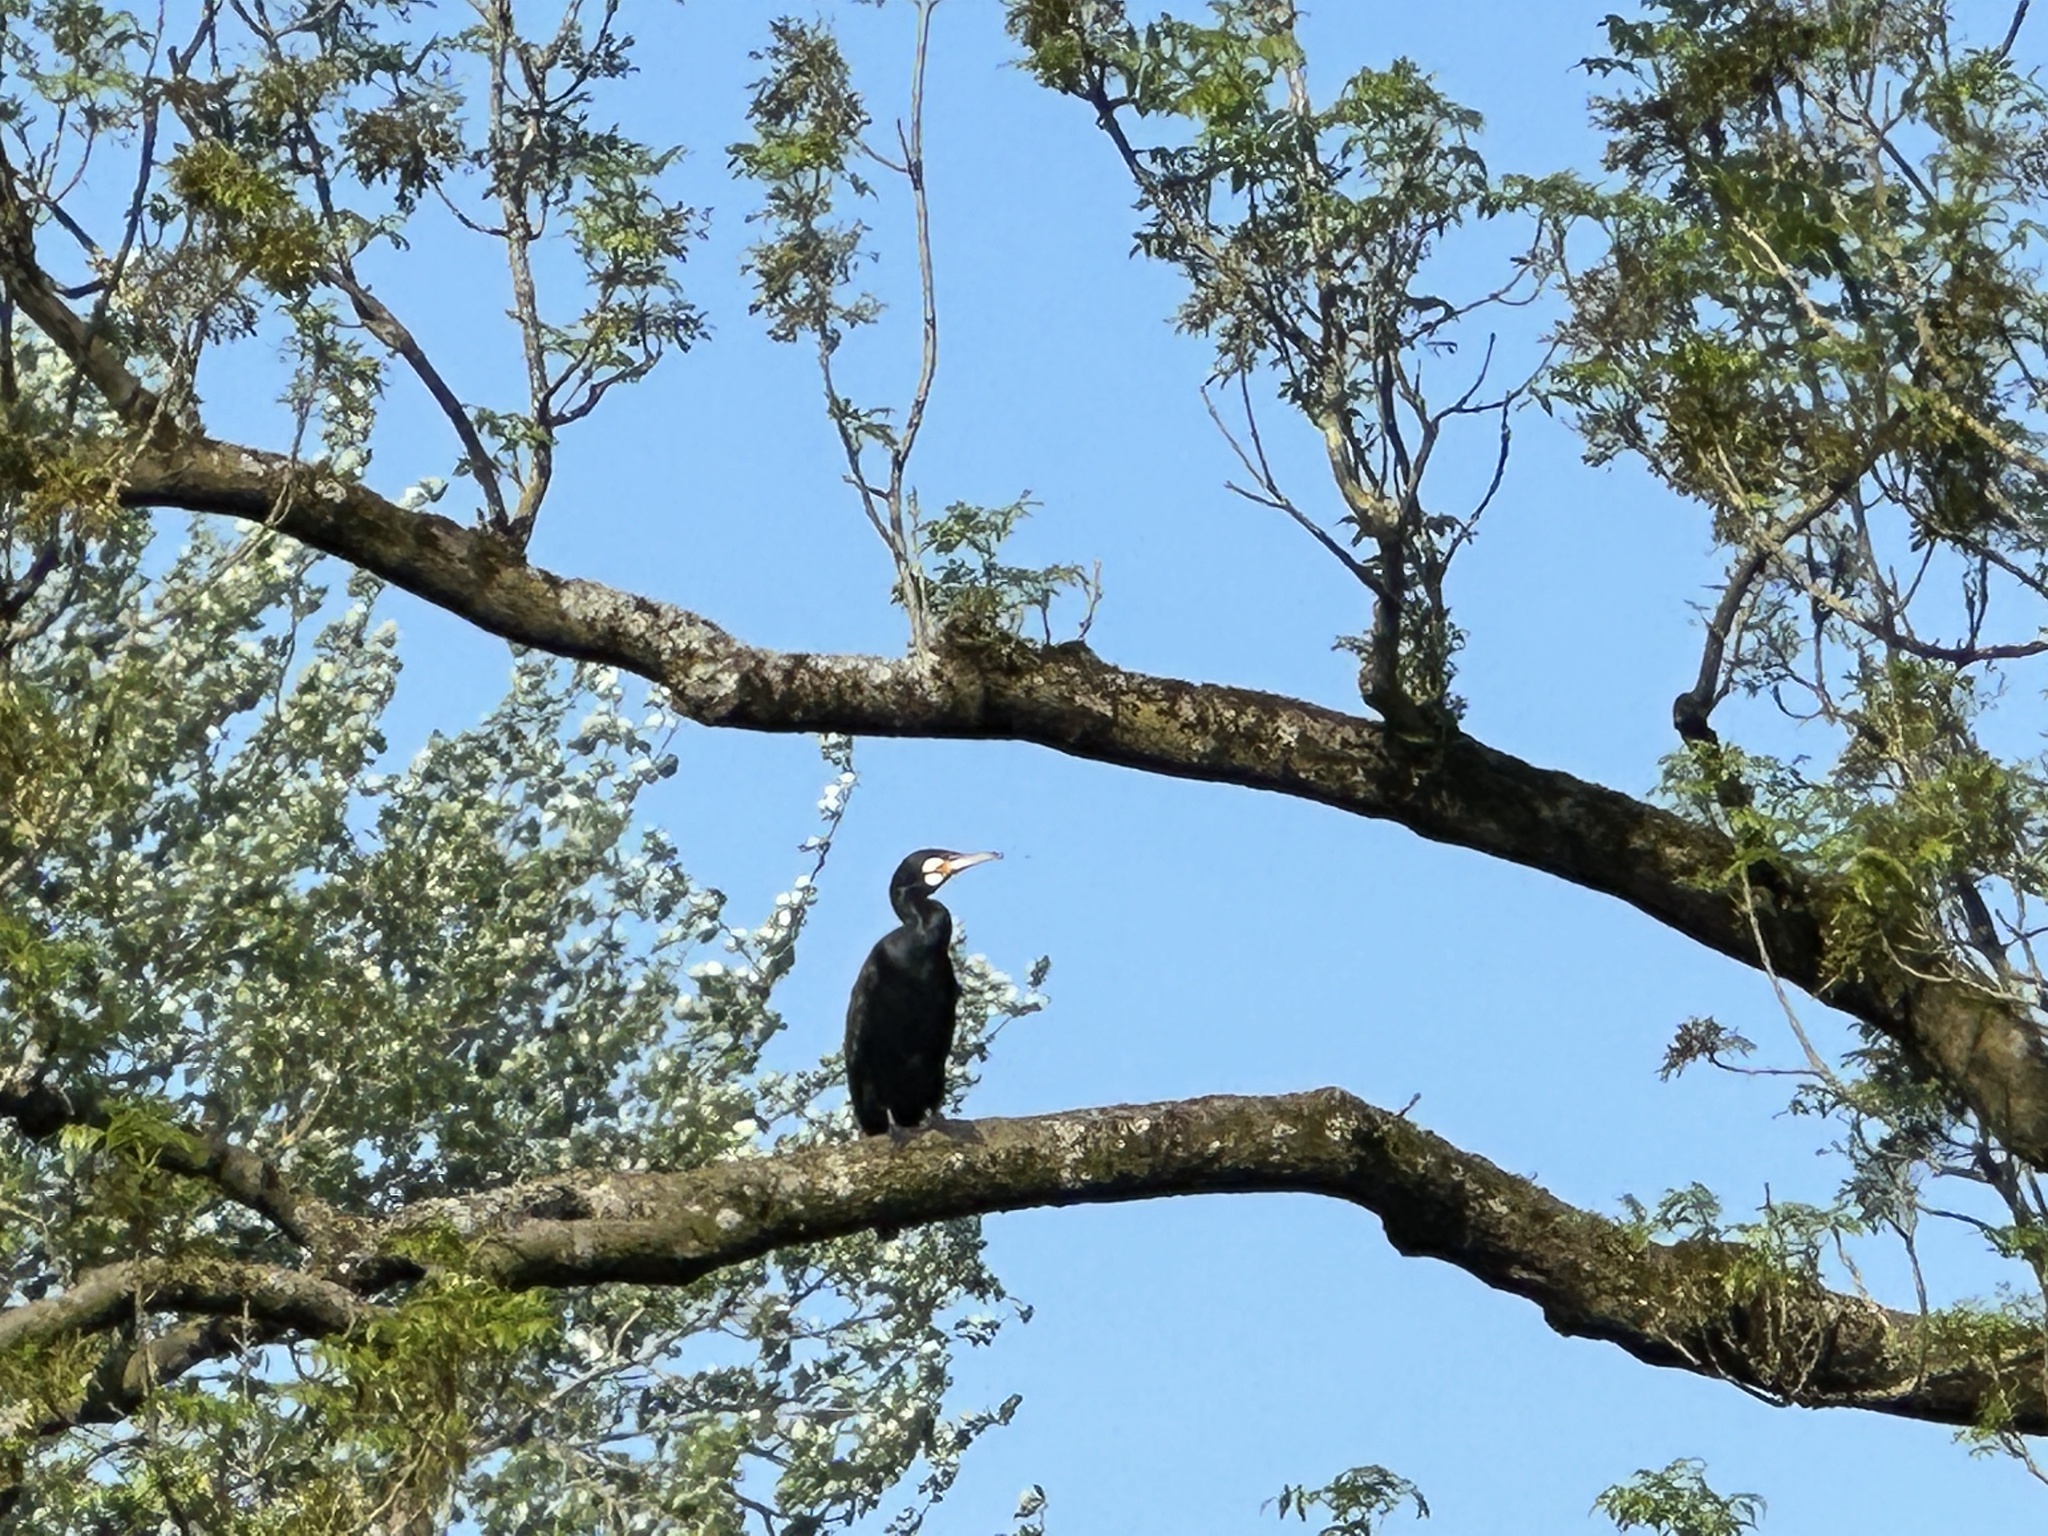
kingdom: Animalia
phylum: Chordata
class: Aves
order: Suliformes
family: Phalacrocoracidae
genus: Phalacrocorax
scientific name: Phalacrocorax carbo
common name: Great cormorant
